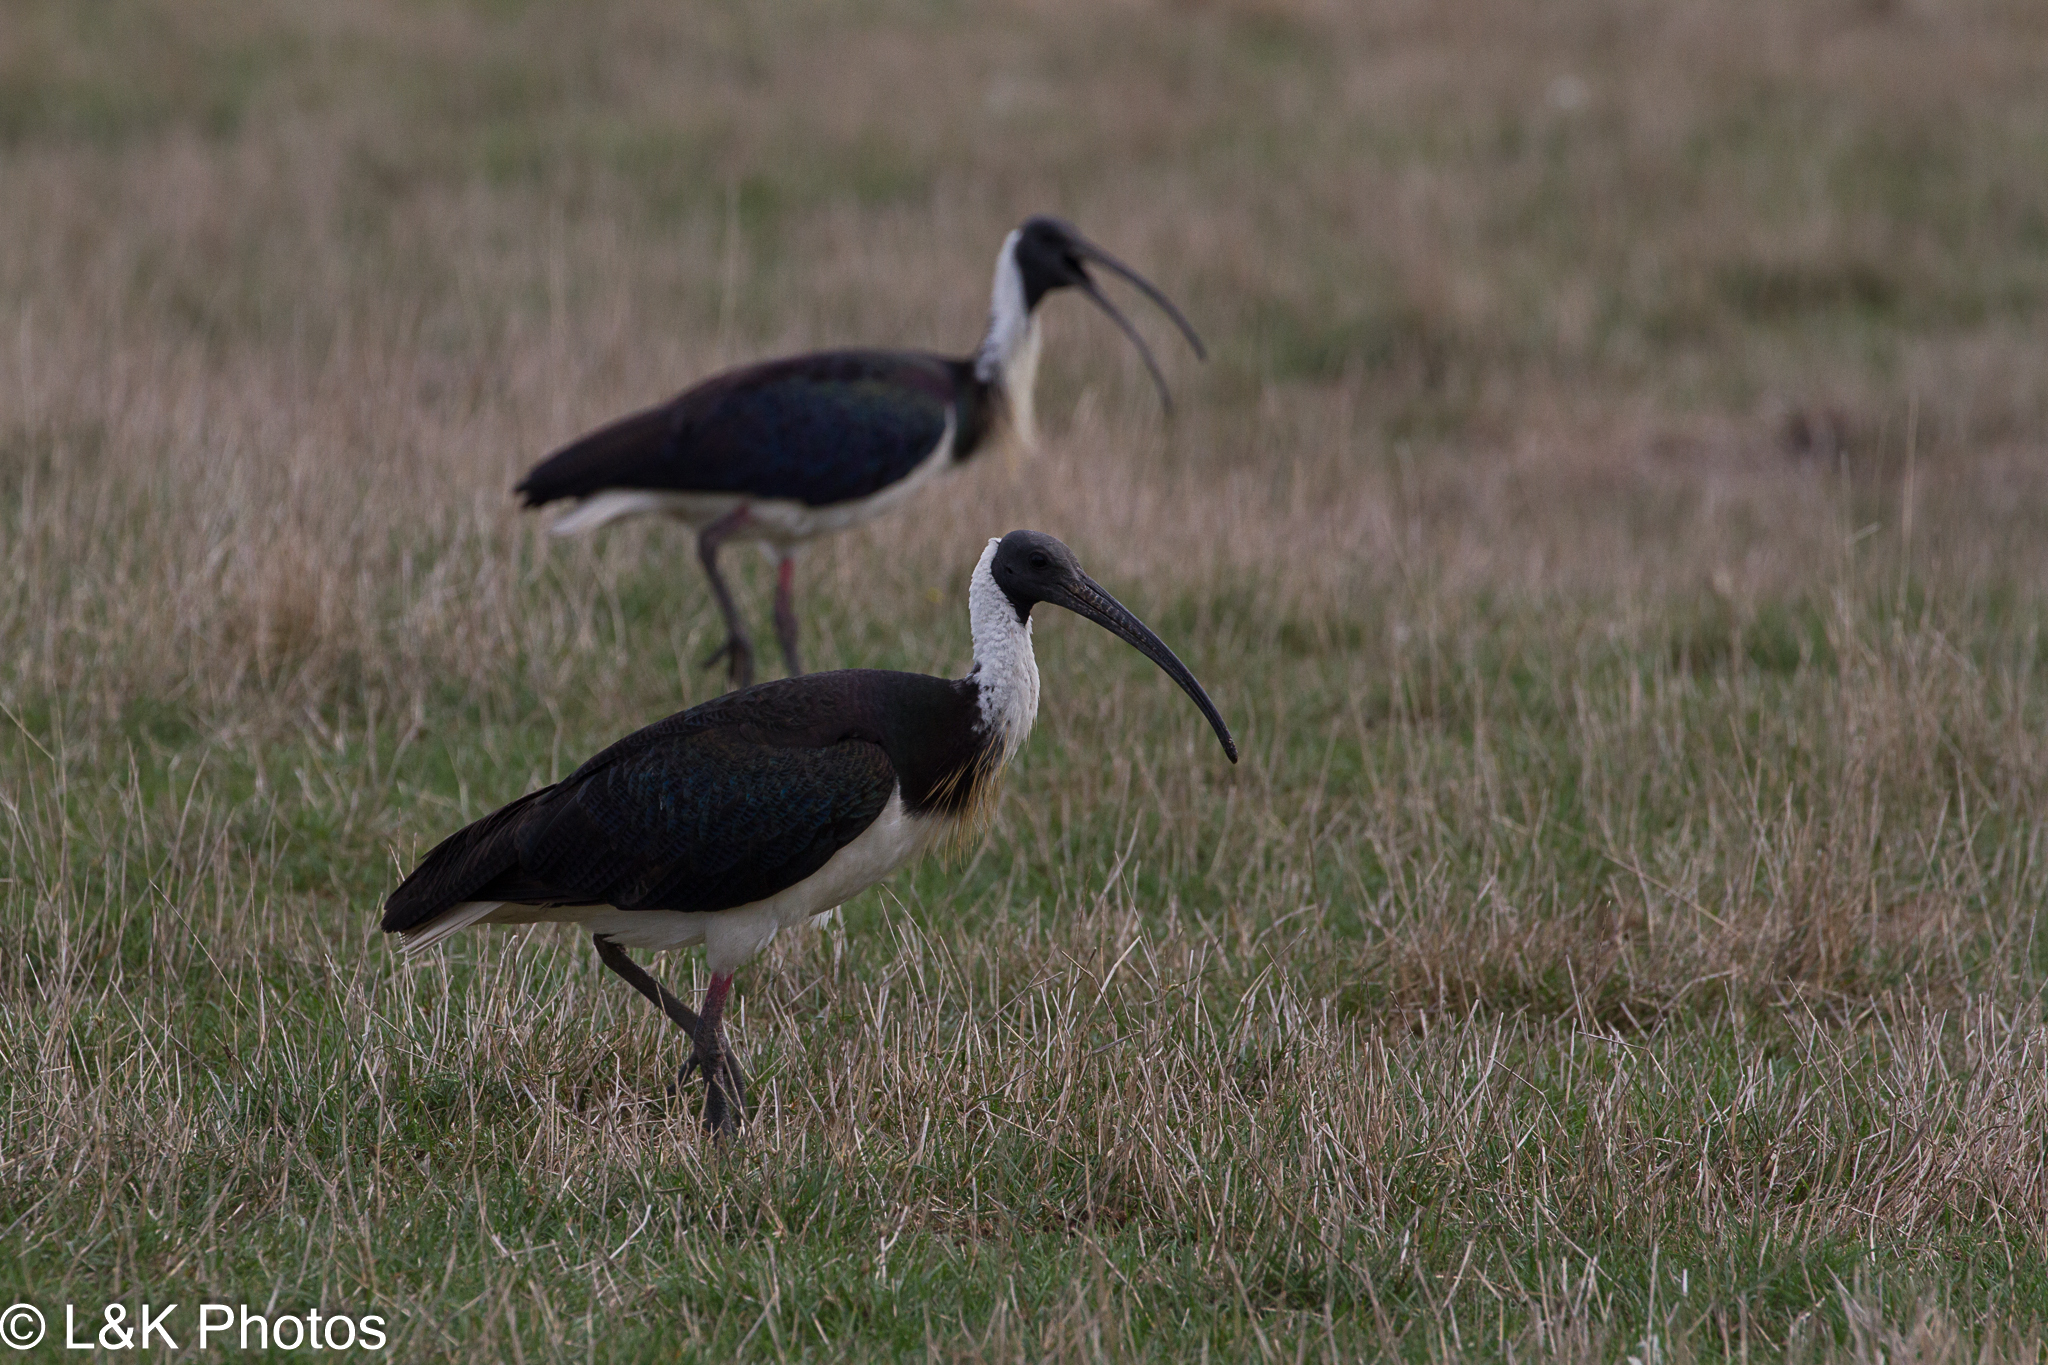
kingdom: Animalia
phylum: Chordata
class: Aves
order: Pelecaniformes
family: Threskiornithidae
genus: Threskiornis
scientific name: Threskiornis spinicollis
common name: Straw-necked ibis
